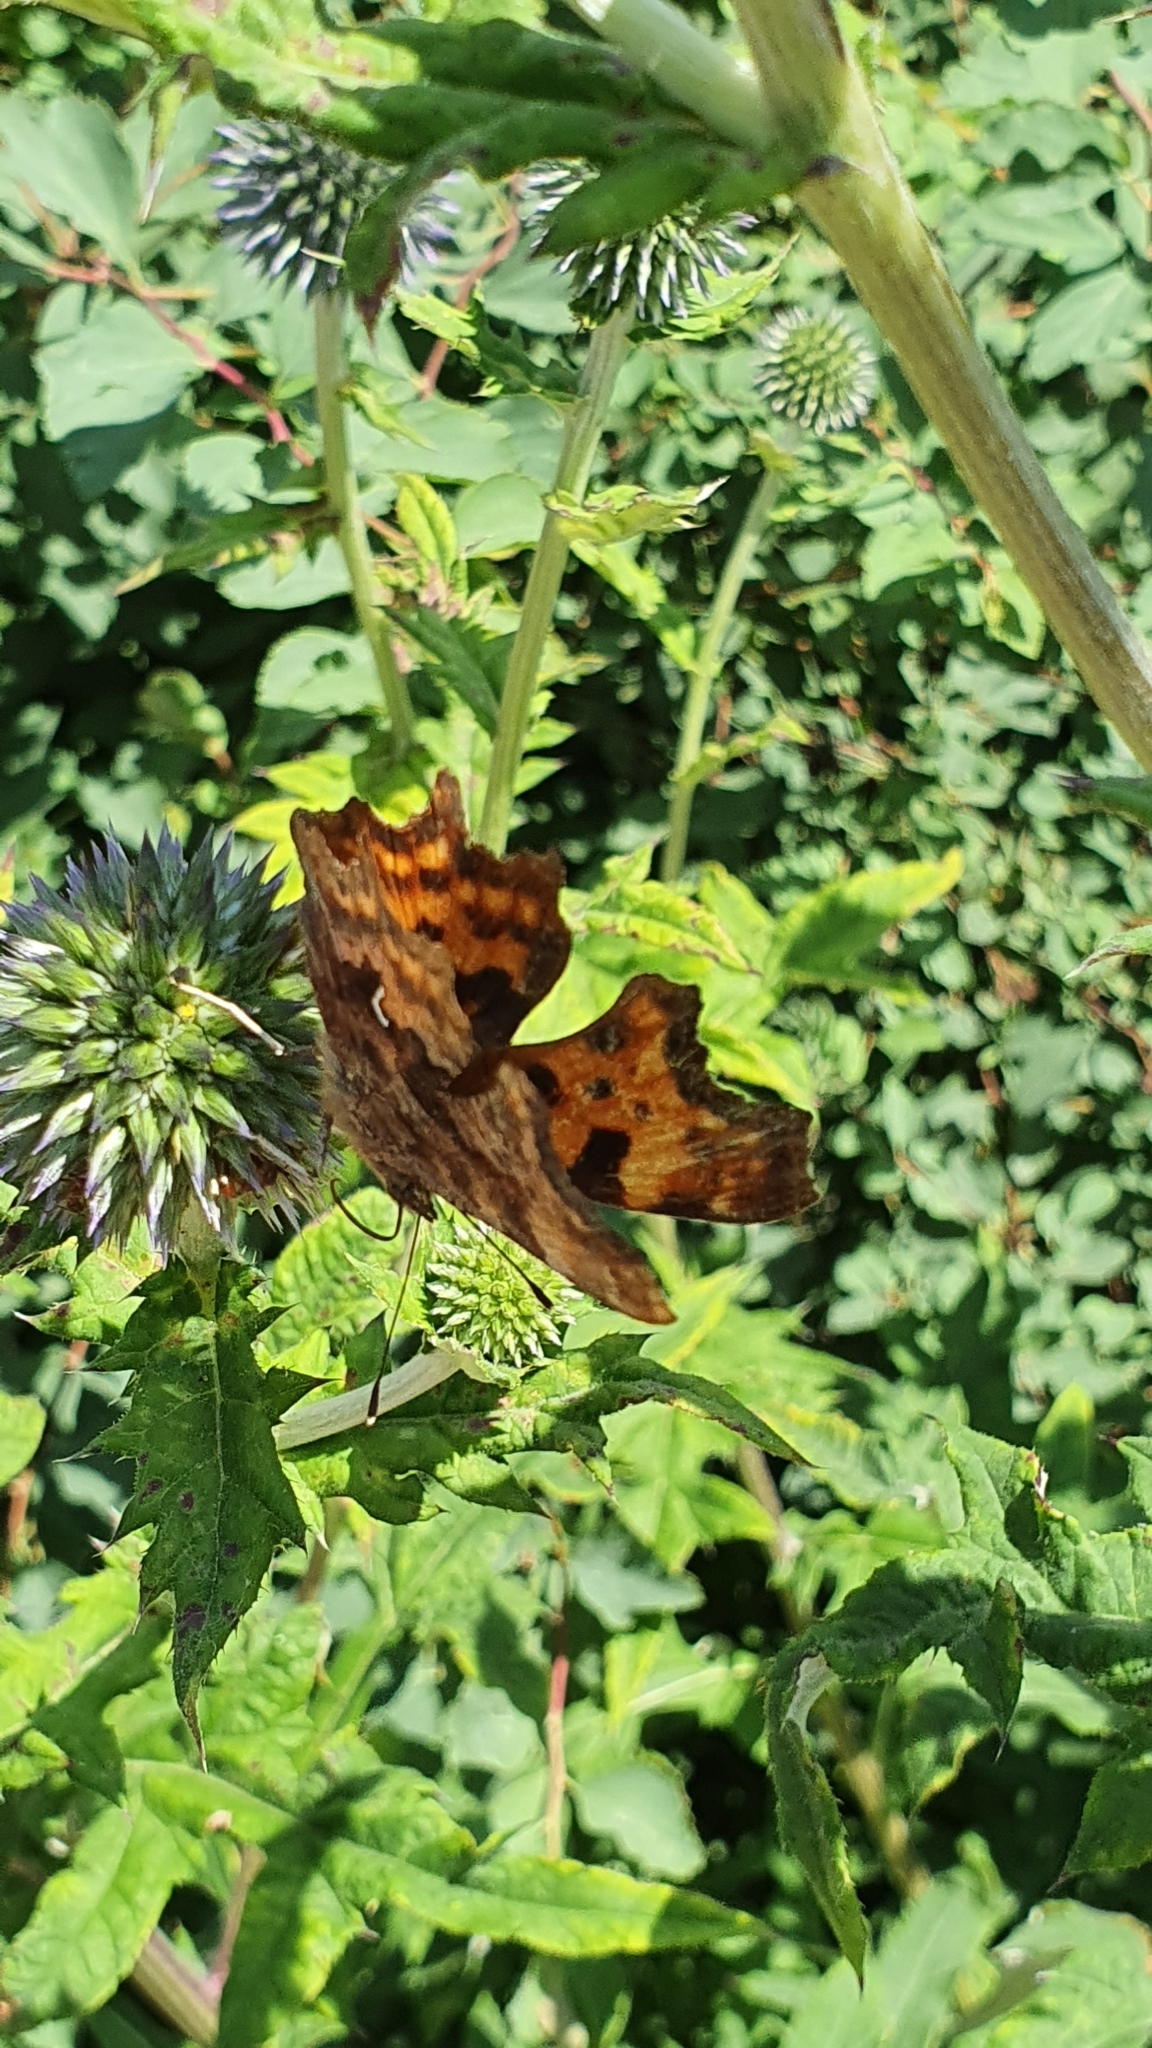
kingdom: Animalia
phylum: Arthropoda
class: Insecta
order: Lepidoptera
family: Nymphalidae
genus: Polygonia
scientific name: Polygonia c-album
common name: Comma
